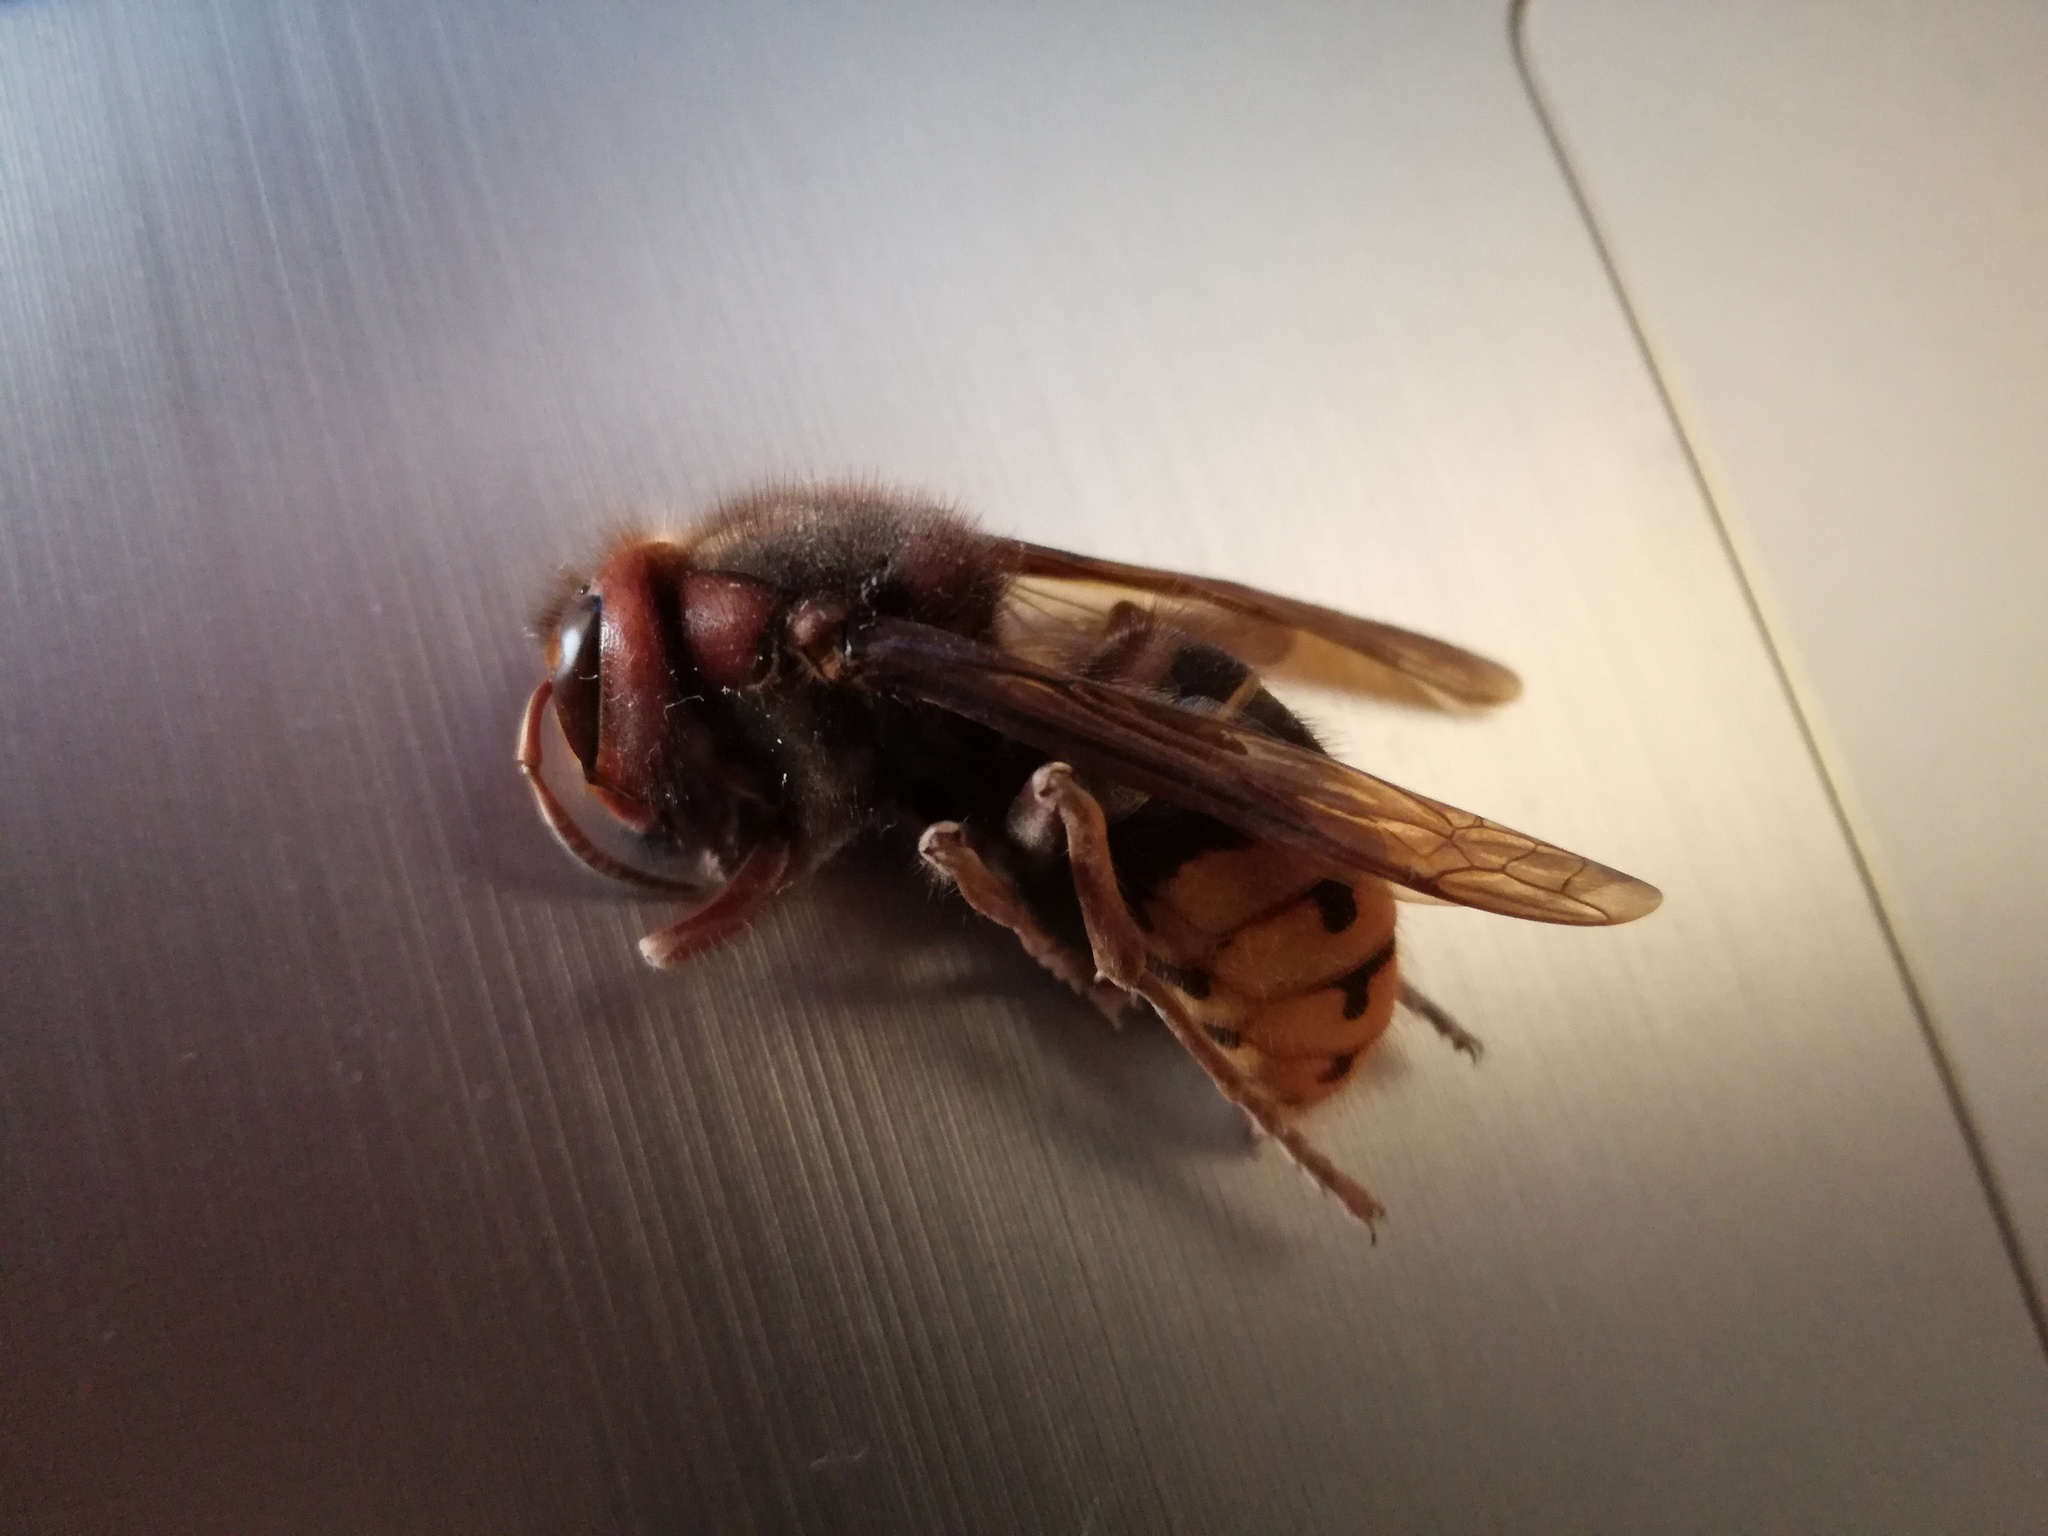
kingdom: Animalia
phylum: Arthropoda
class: Insecta
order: Hymenoptera
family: Vespidae
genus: Vespa
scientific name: Vespa crabro
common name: Hornet
